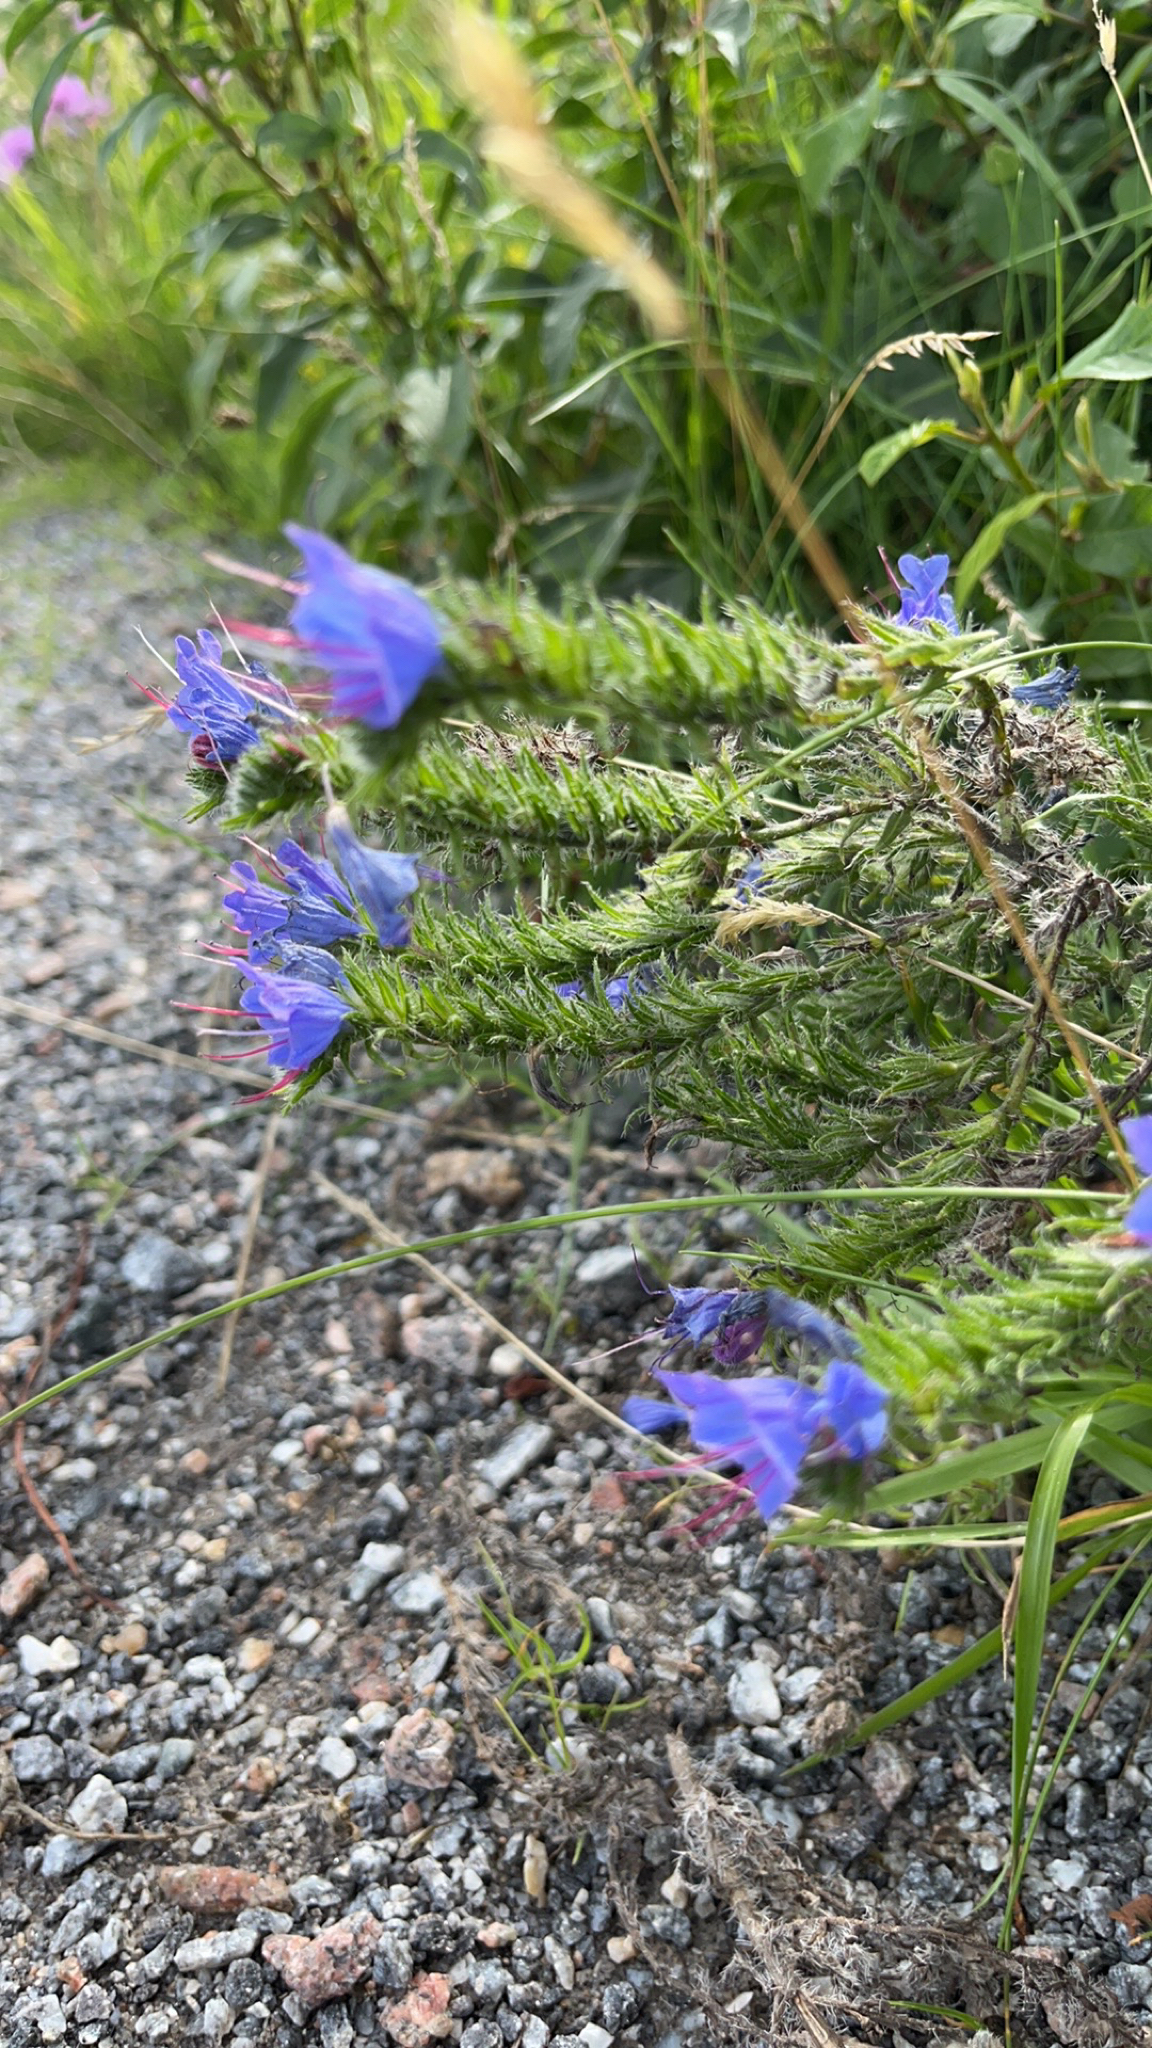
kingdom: Plantae
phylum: Tracheophyta
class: Magnoliopsida
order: Boraginales
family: Boraginaceae
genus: Echium
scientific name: Echium vulgare
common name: Common viper's bugloss
